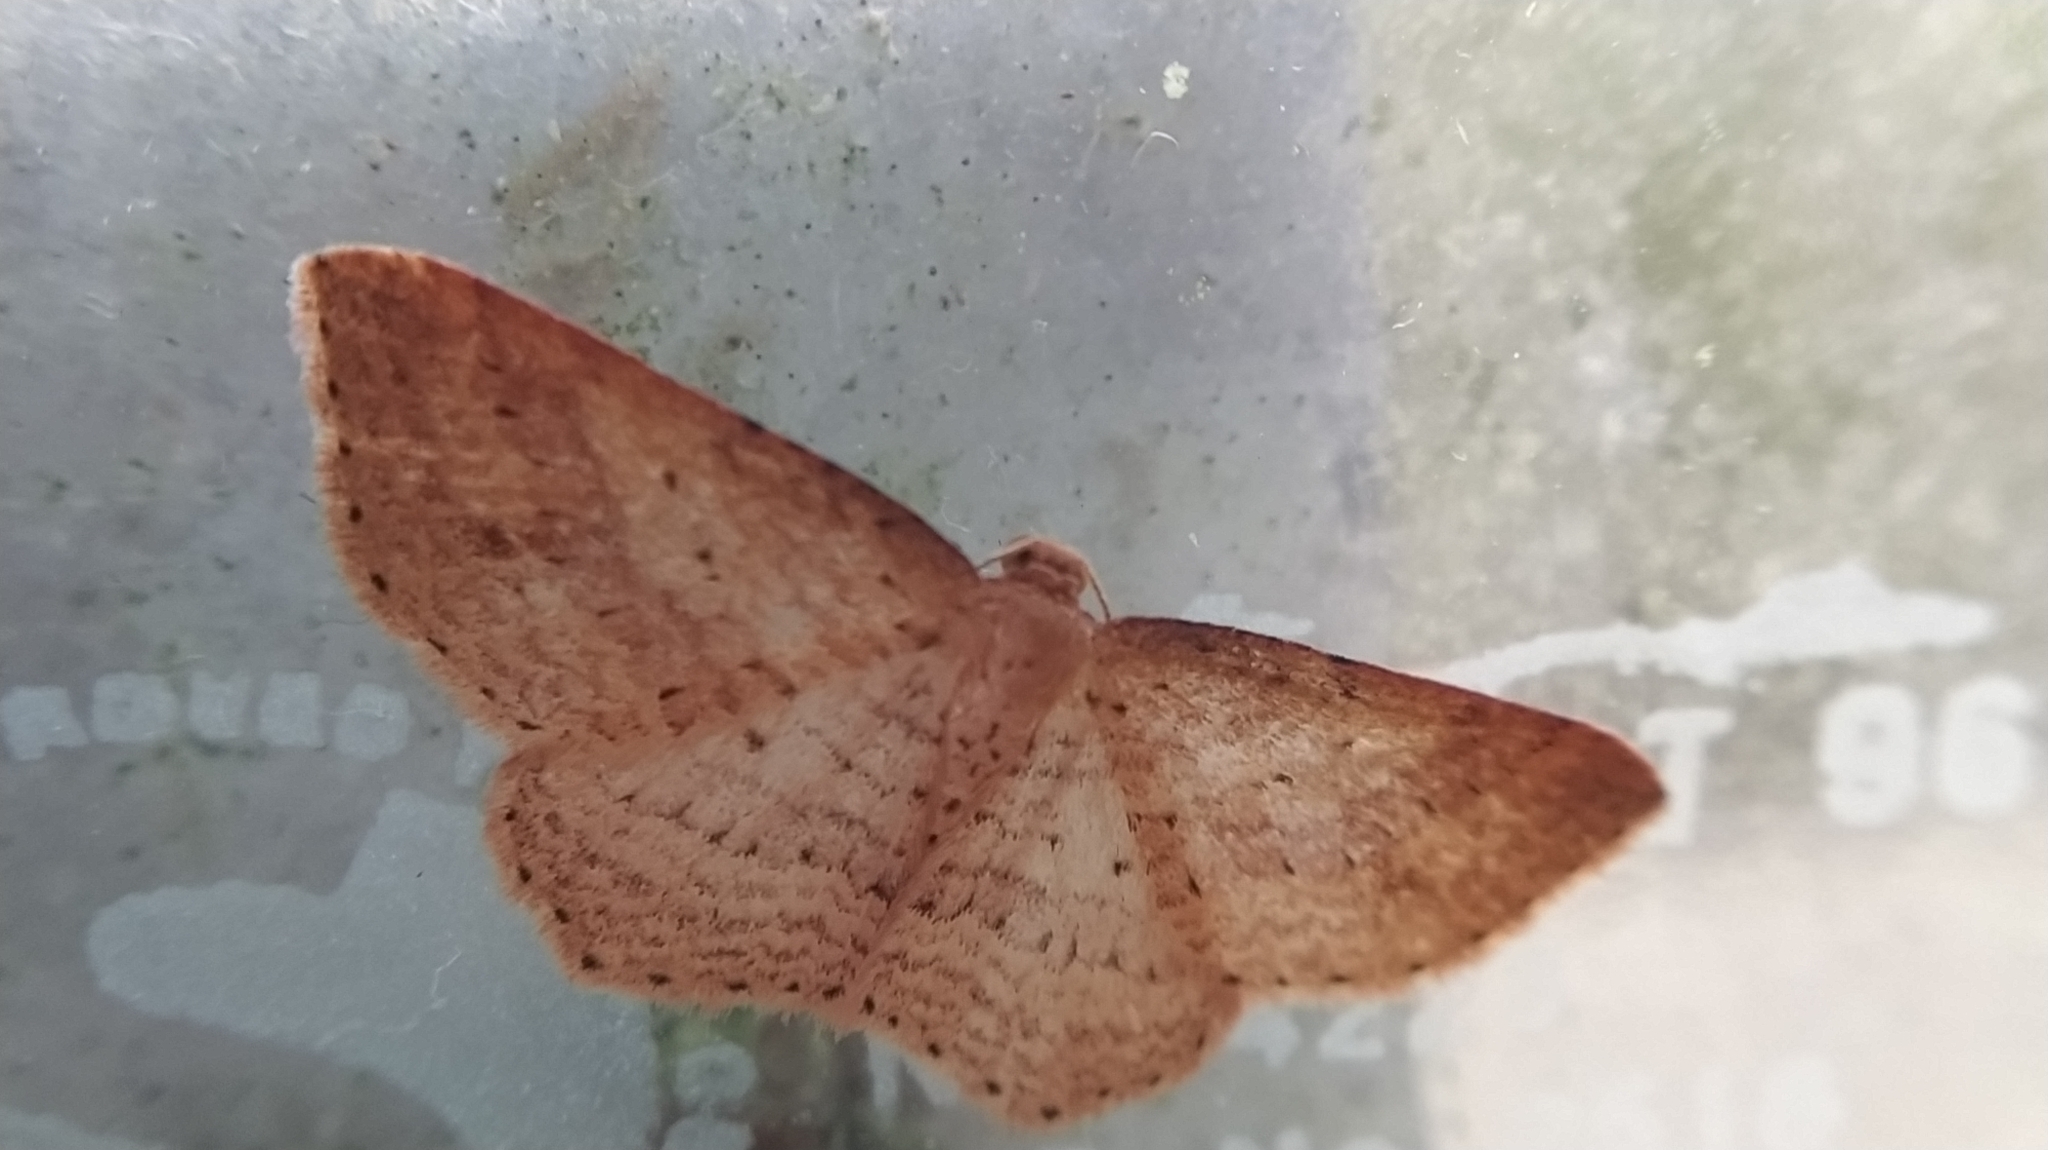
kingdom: Animalia
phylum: Arthropoda
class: Insecta
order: Lepidoptera
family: Geometridae
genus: Epicyme
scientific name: Epicyme rubropunctaria
